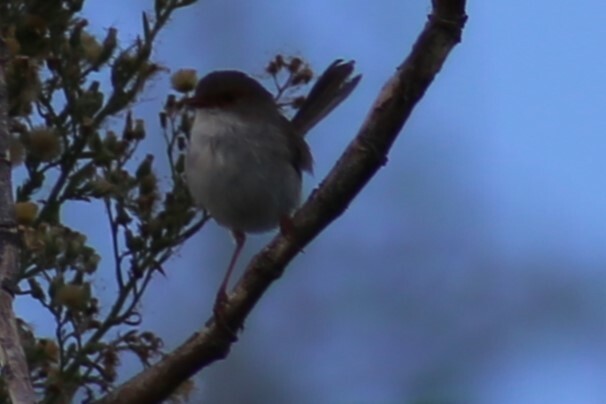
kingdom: Animalia
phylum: Chordata
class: Aves
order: Passeriformes
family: Maluridae
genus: Malurus
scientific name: Malurus cyaneus
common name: Superb fairywren
